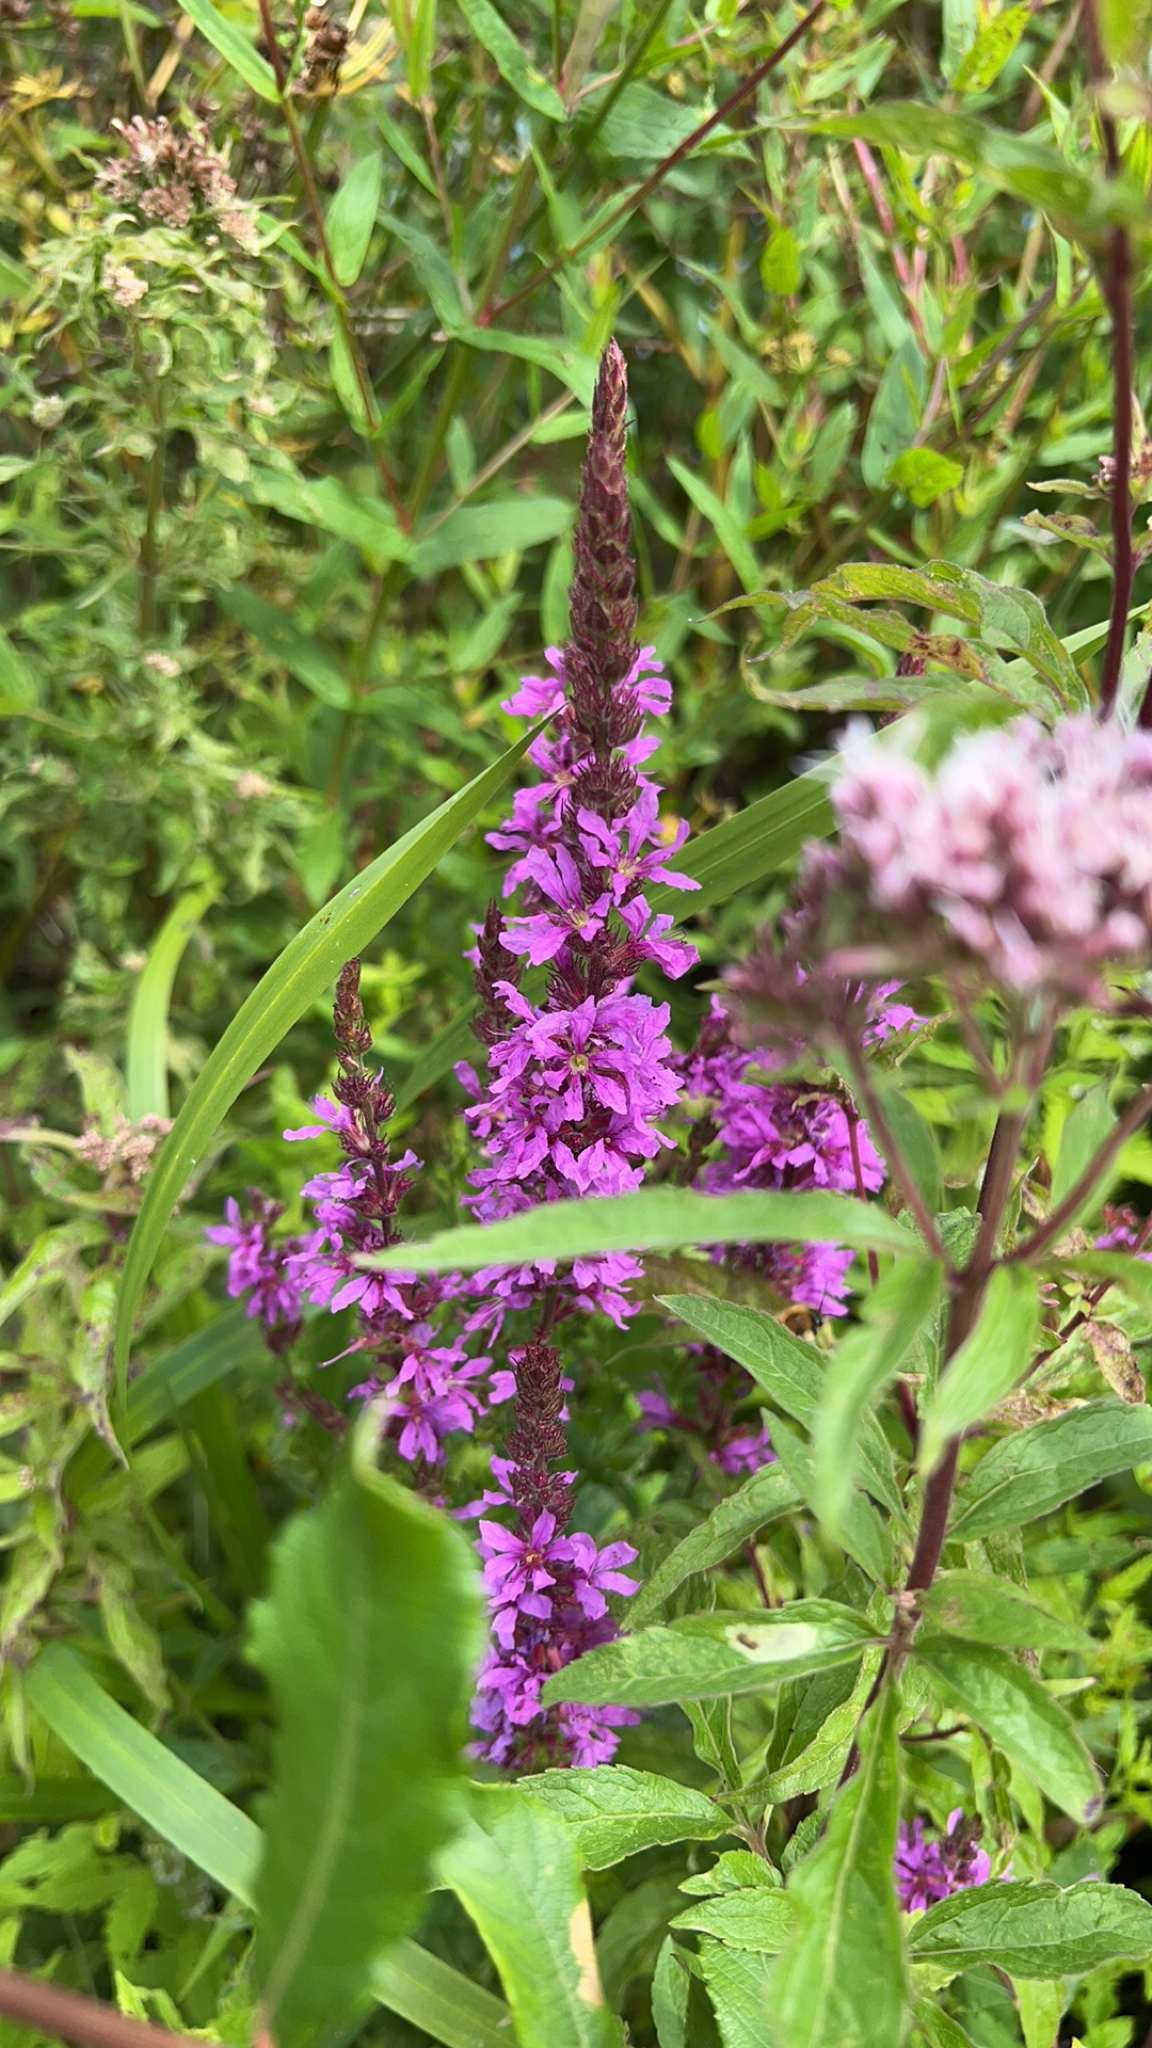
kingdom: Plantae
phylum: Tracheophyta
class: Magnoliopsida
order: Myrtales
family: Lythraceae
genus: Lythrum
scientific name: Lythrum salicaria
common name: Purple loosestrife
